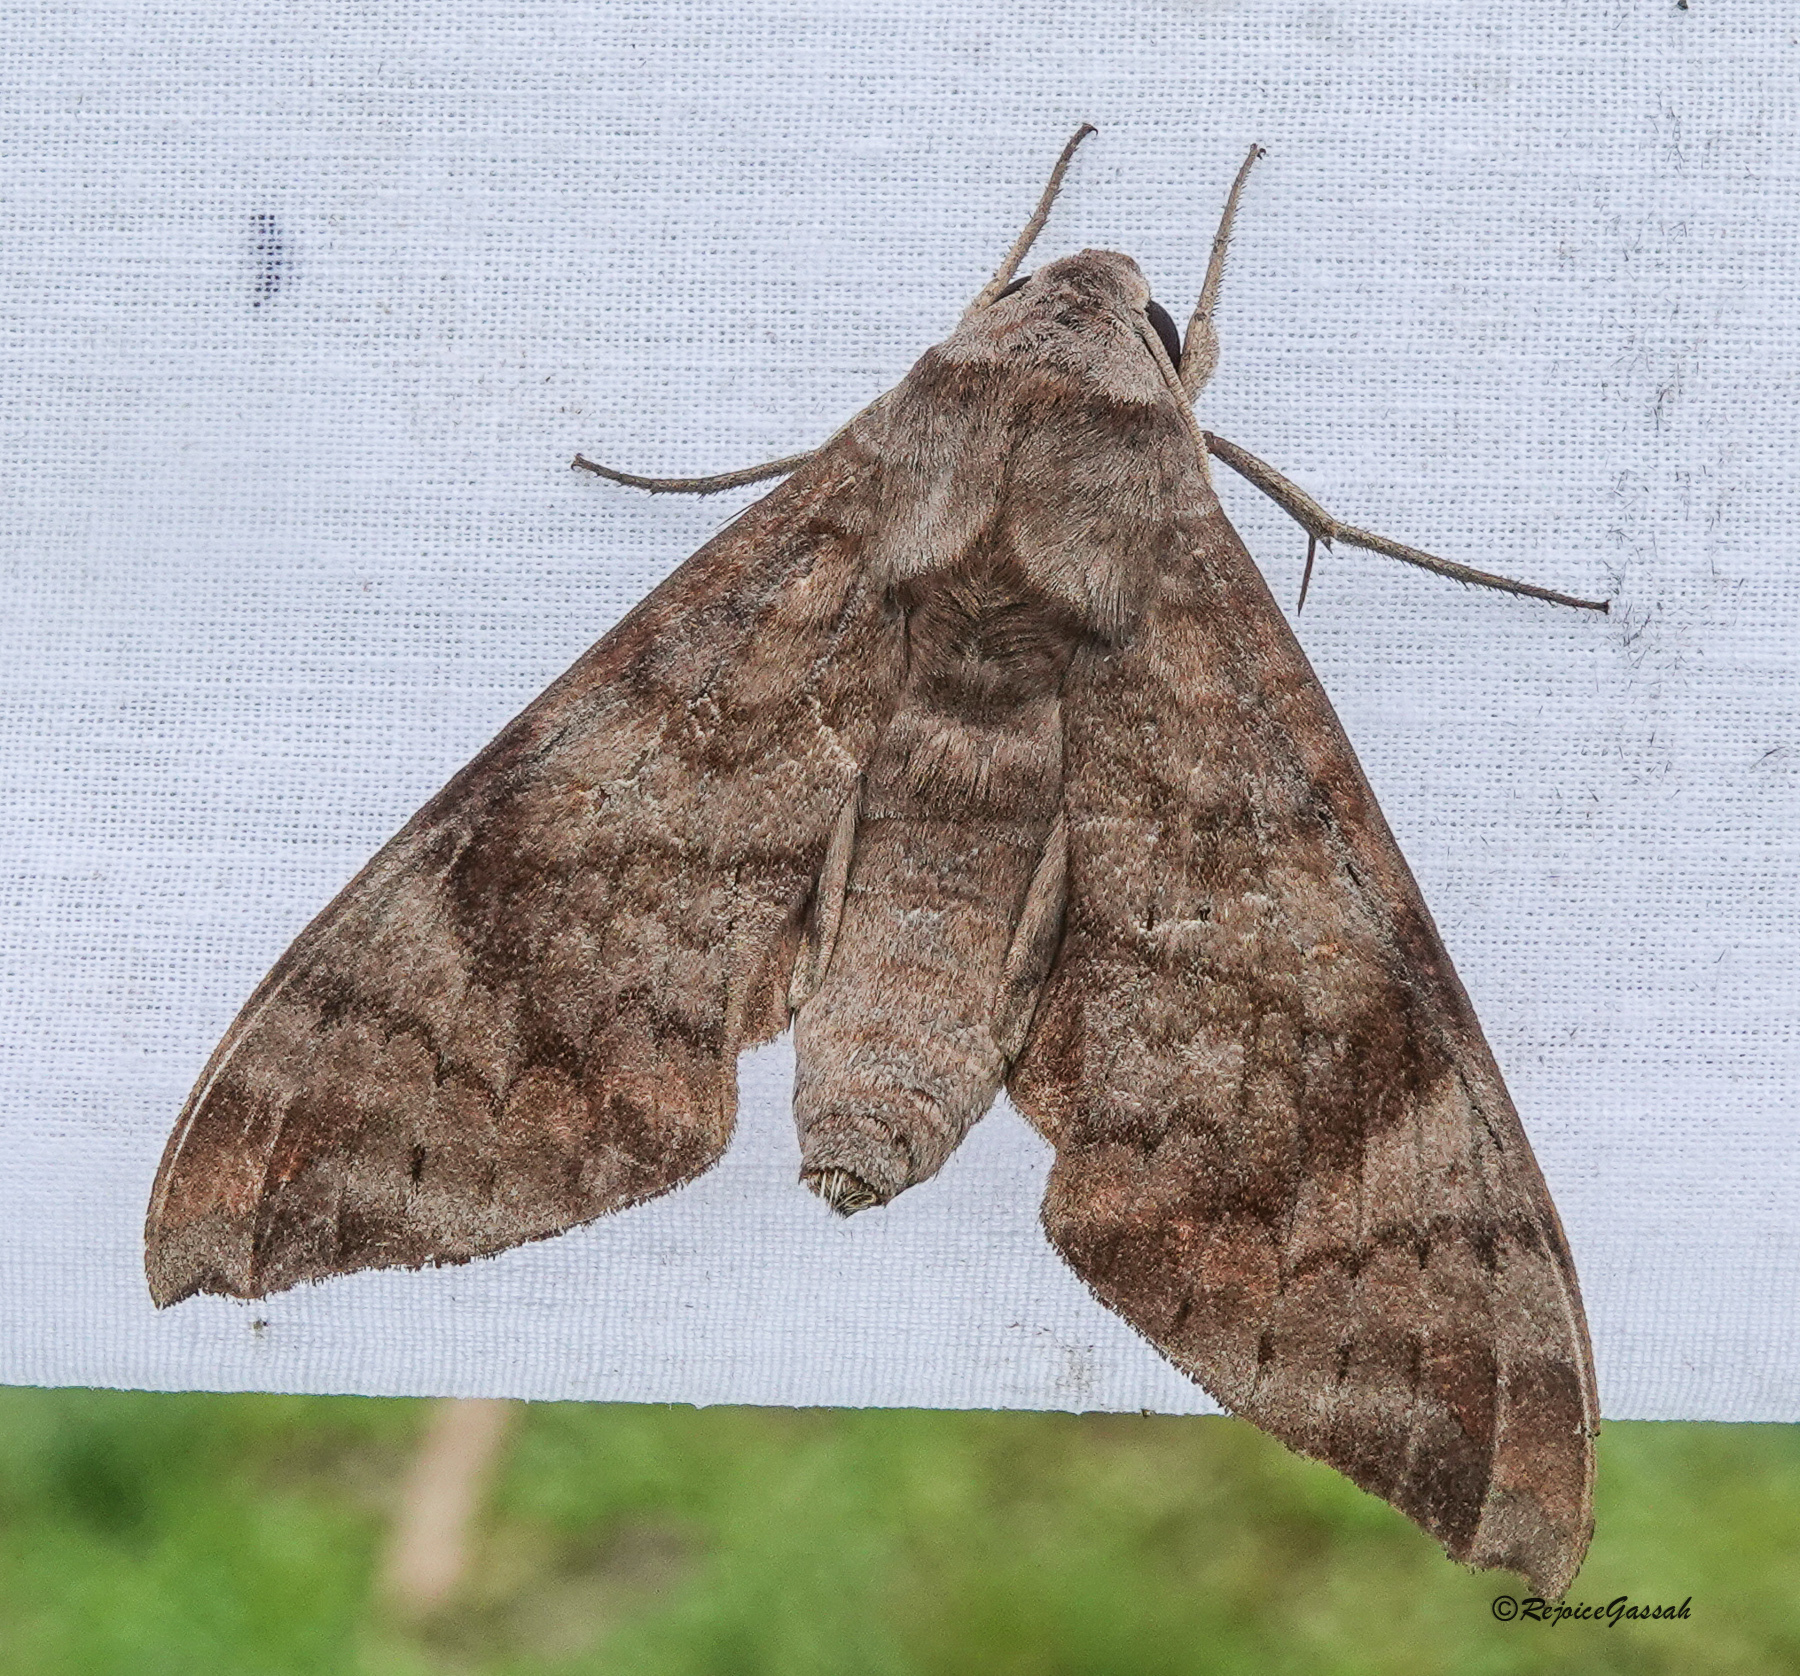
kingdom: Animalia
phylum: Arthropoda
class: Insecta
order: Lepidoptera
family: Sphingidae
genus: Acosmeryx
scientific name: Acosmeryx shervillii
